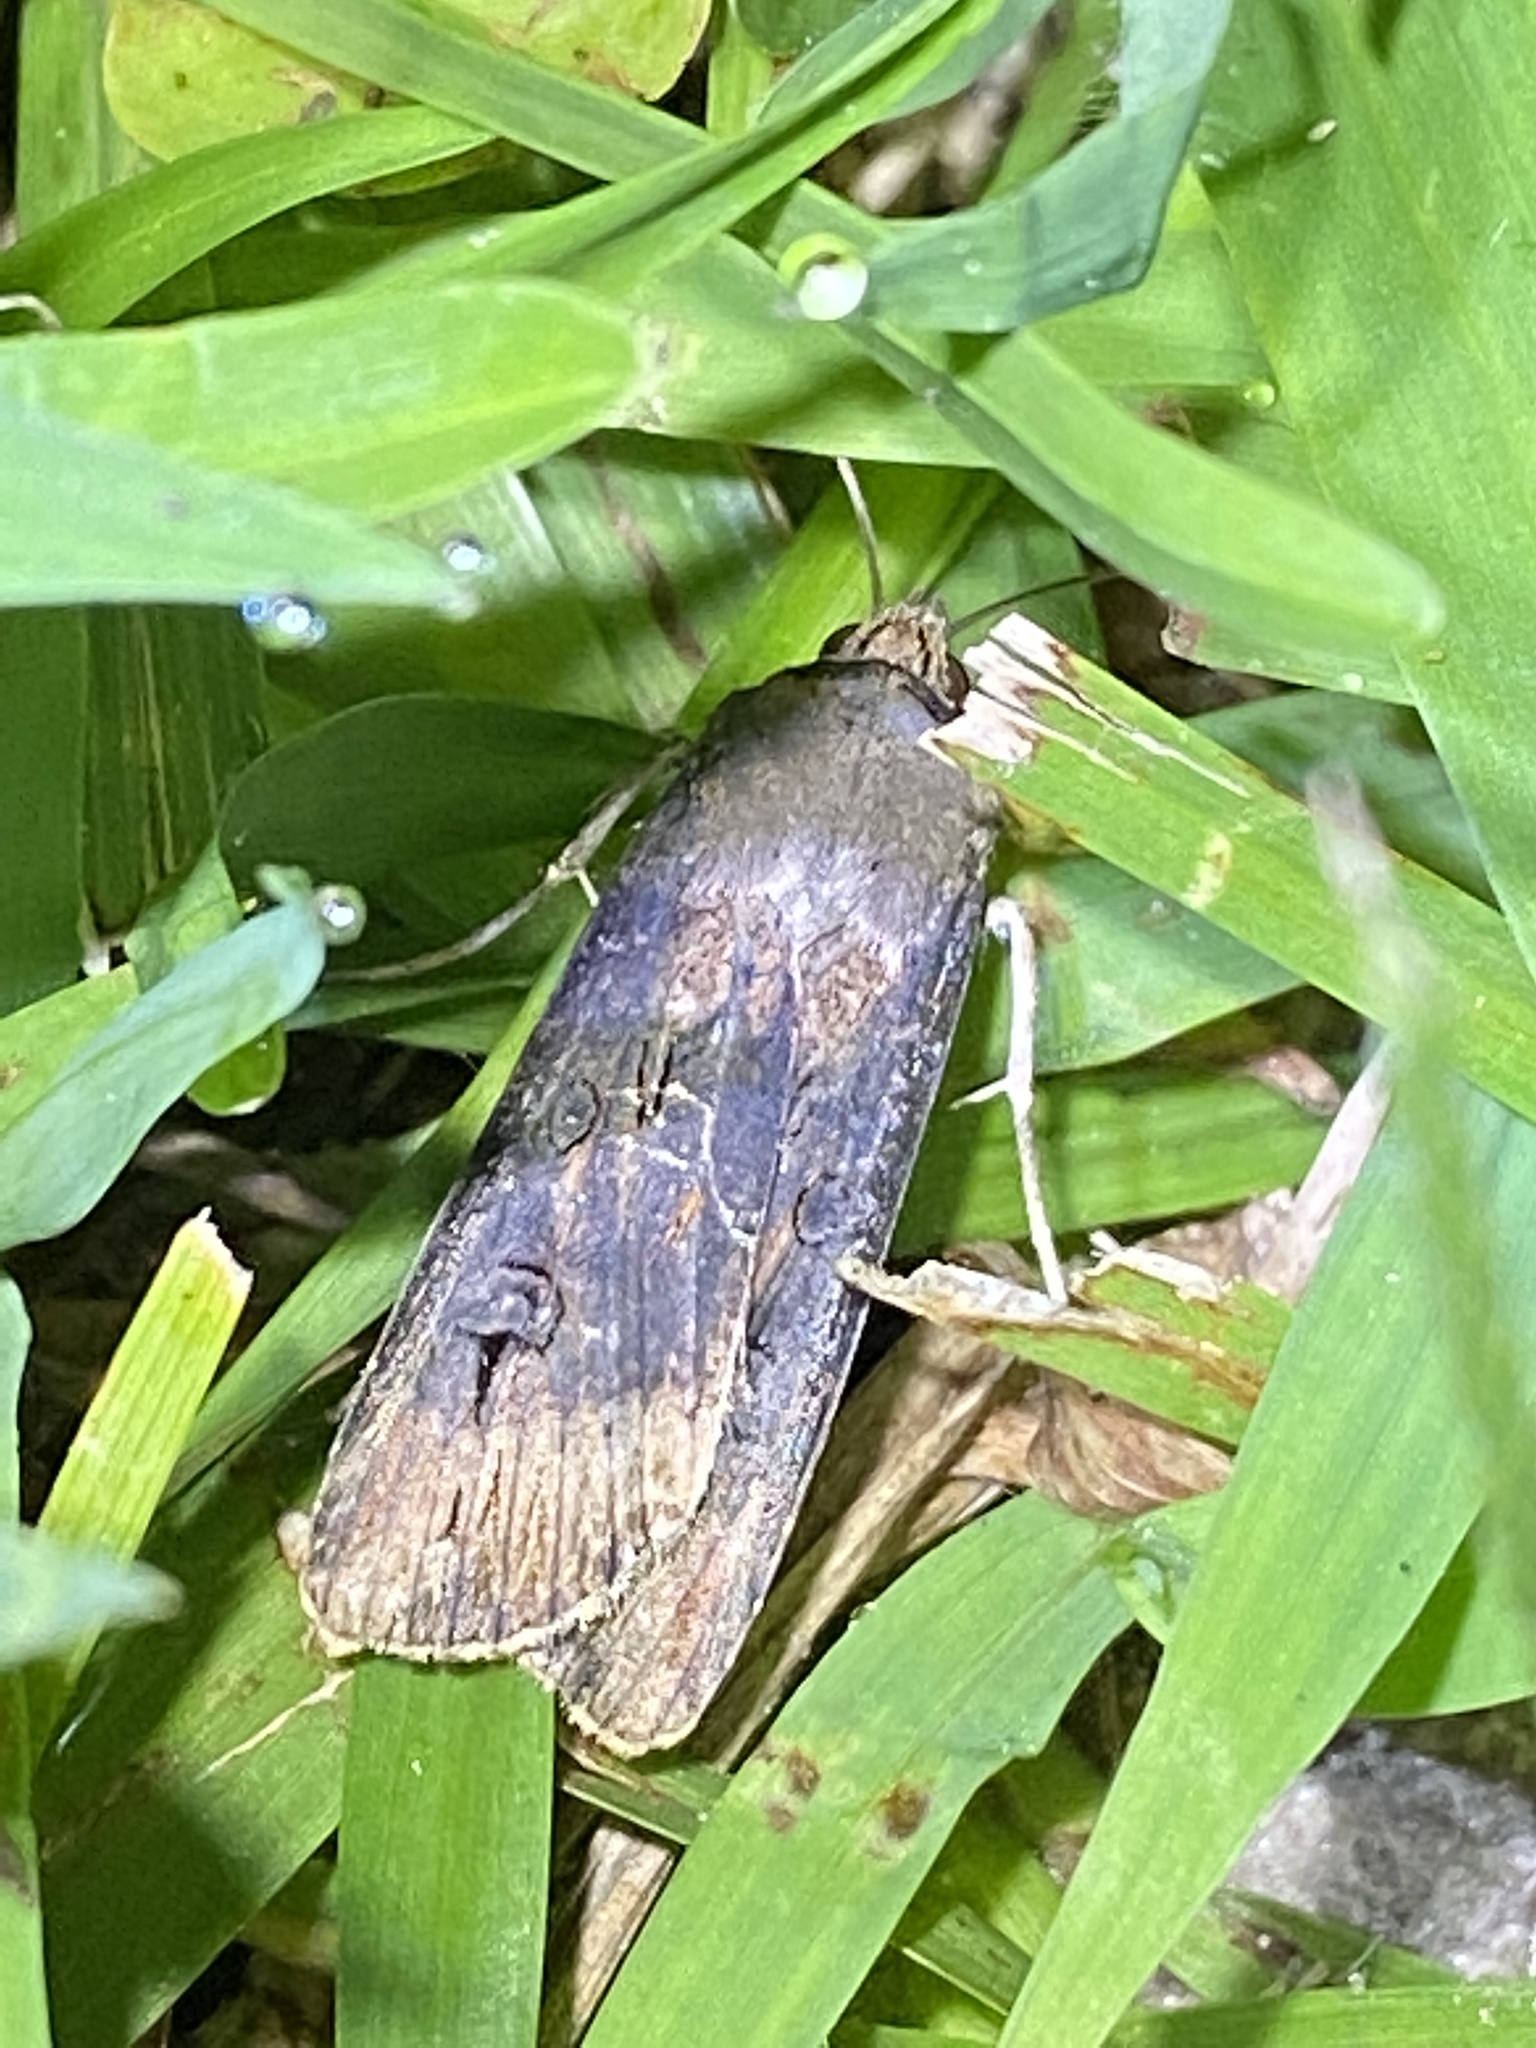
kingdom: Animalia
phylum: Arthropoda
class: Insecta
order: Lepidoptera
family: Noctuidae
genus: Agrotis
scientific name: Agrotis ipsilon
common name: Dark sword-grass
